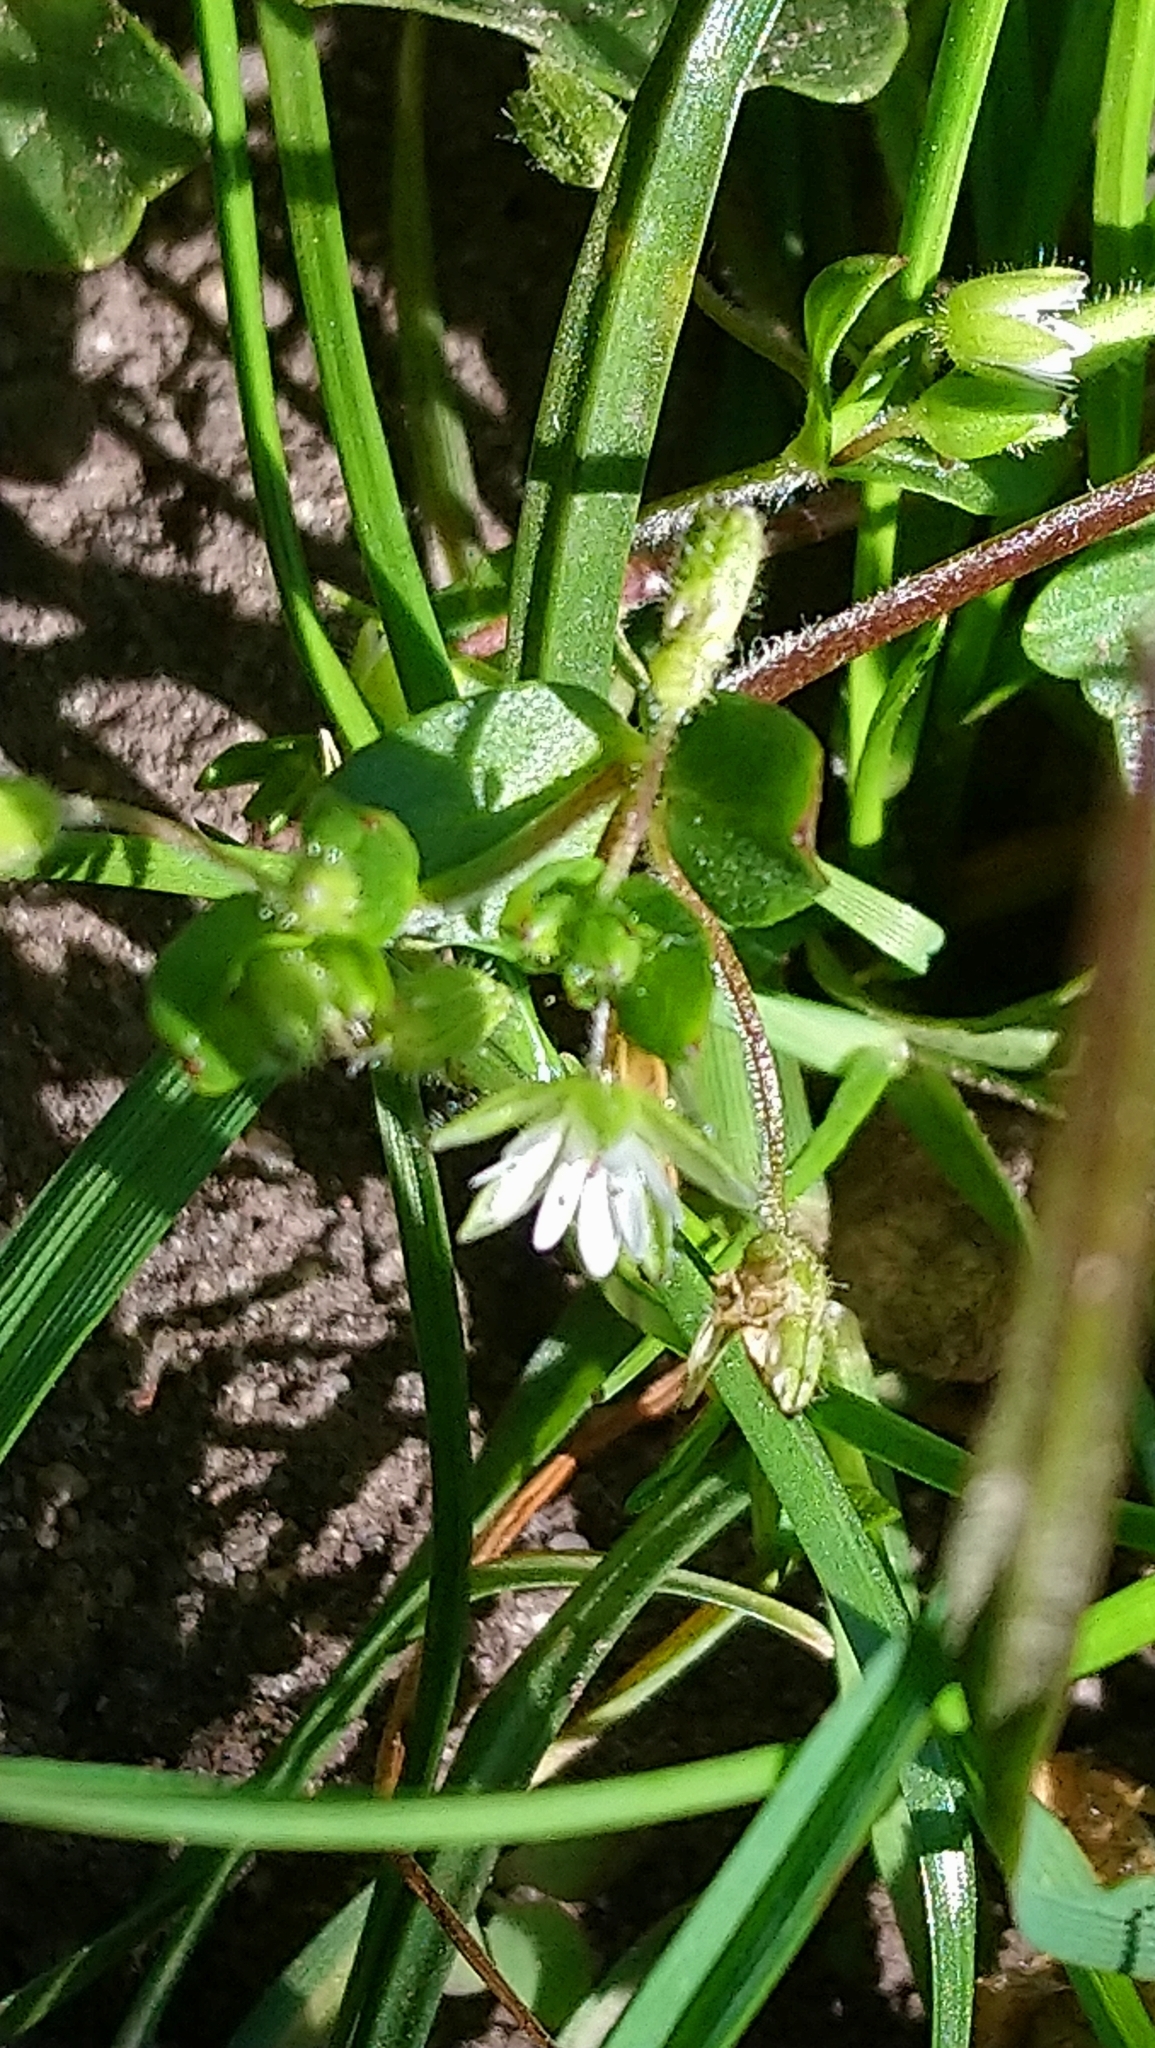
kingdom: Plantae
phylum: Tracheophyta
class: Magnoliopsida
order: Caryophyllales
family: Caryophyllaceae
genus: Stellaria
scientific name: Stellaria media
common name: Common chickweed
